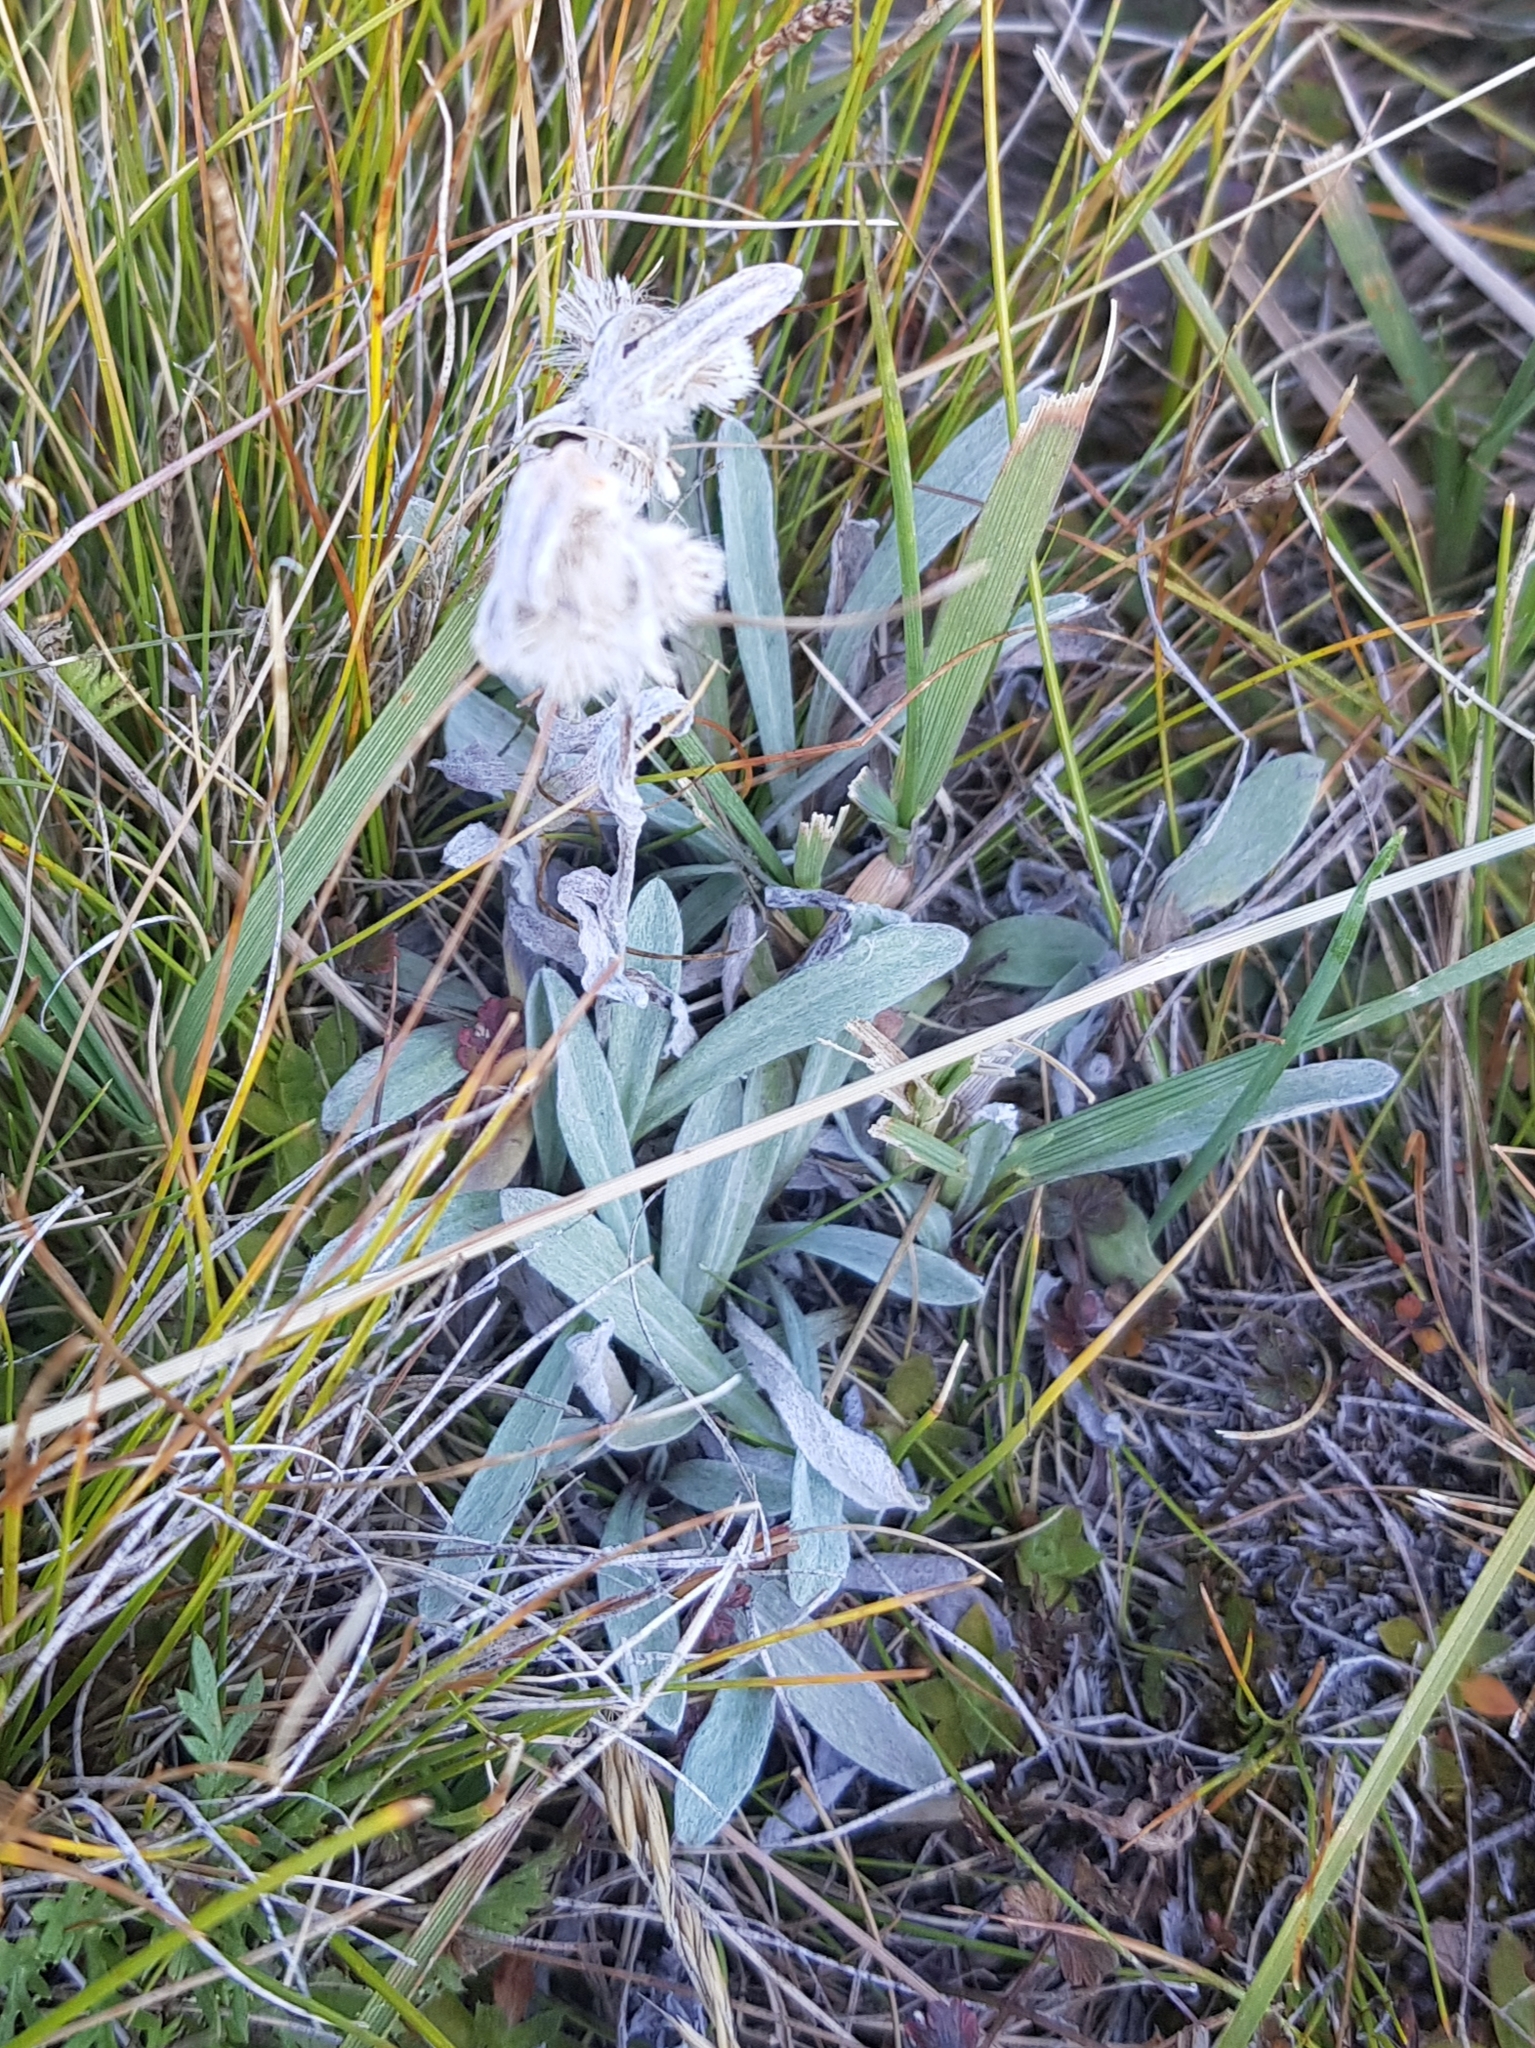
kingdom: Plantae
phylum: Tracheophyta
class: Magnoliopsida
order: Asterales
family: Asteraceae
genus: Leontopodium
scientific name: Leontopodium leontopodioides
